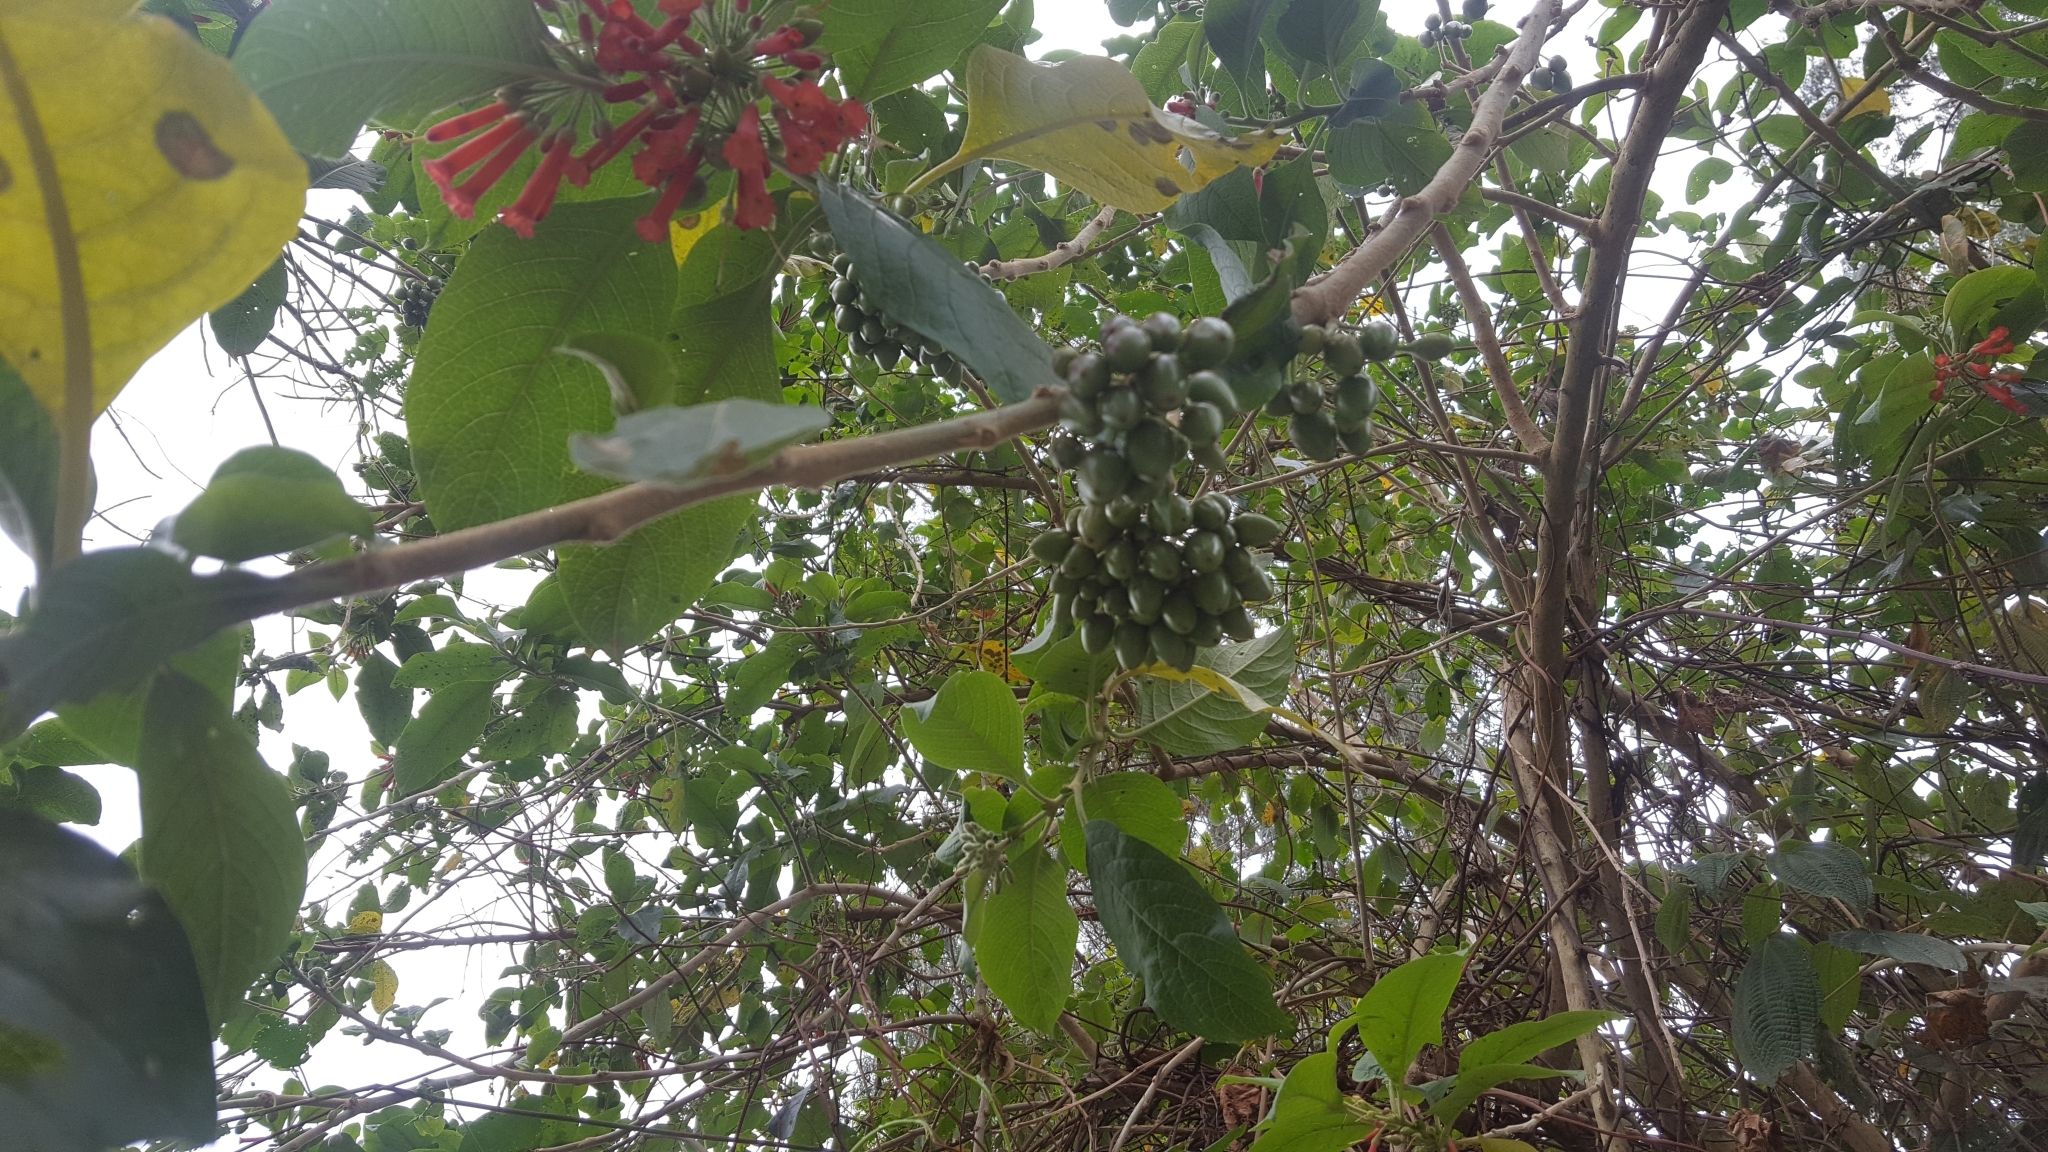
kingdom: Plantae
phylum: Tracheophyta
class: Magnoliopsida
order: Solanales
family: Solanaceae
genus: Iochroma
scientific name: Iochroma fuchsioides
